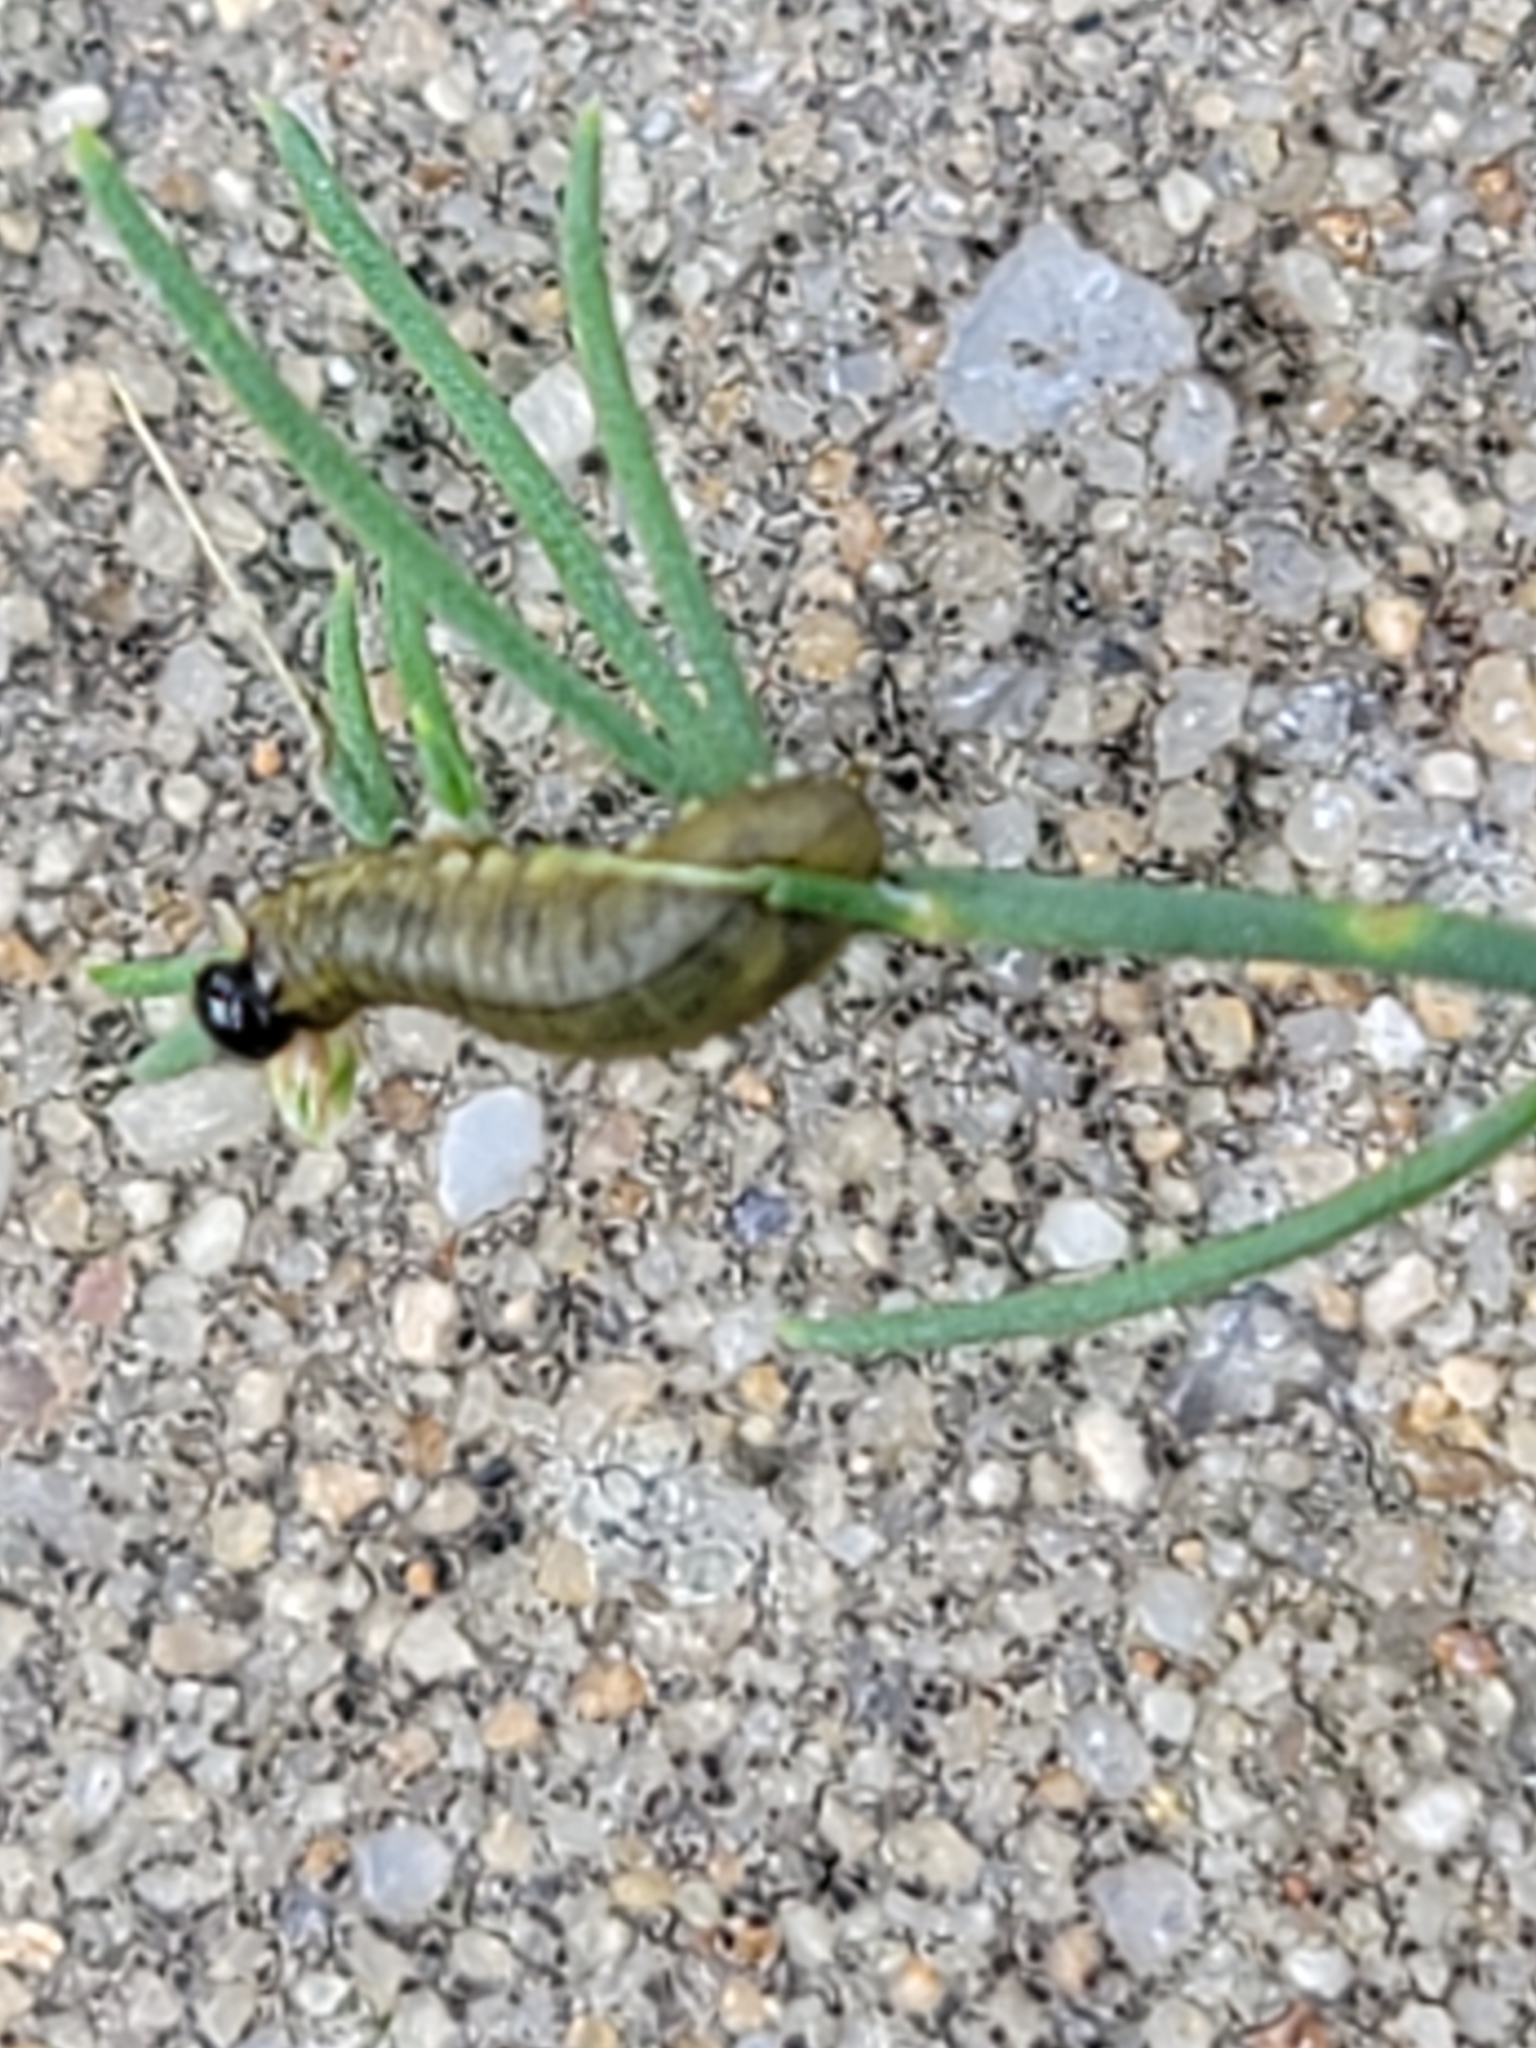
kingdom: Animalia
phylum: Arthropoda
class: Insecta
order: Coleoptera
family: Chrysomelidae
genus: Crioceris
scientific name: Crioceris asparagi
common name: Asparagus beetle
